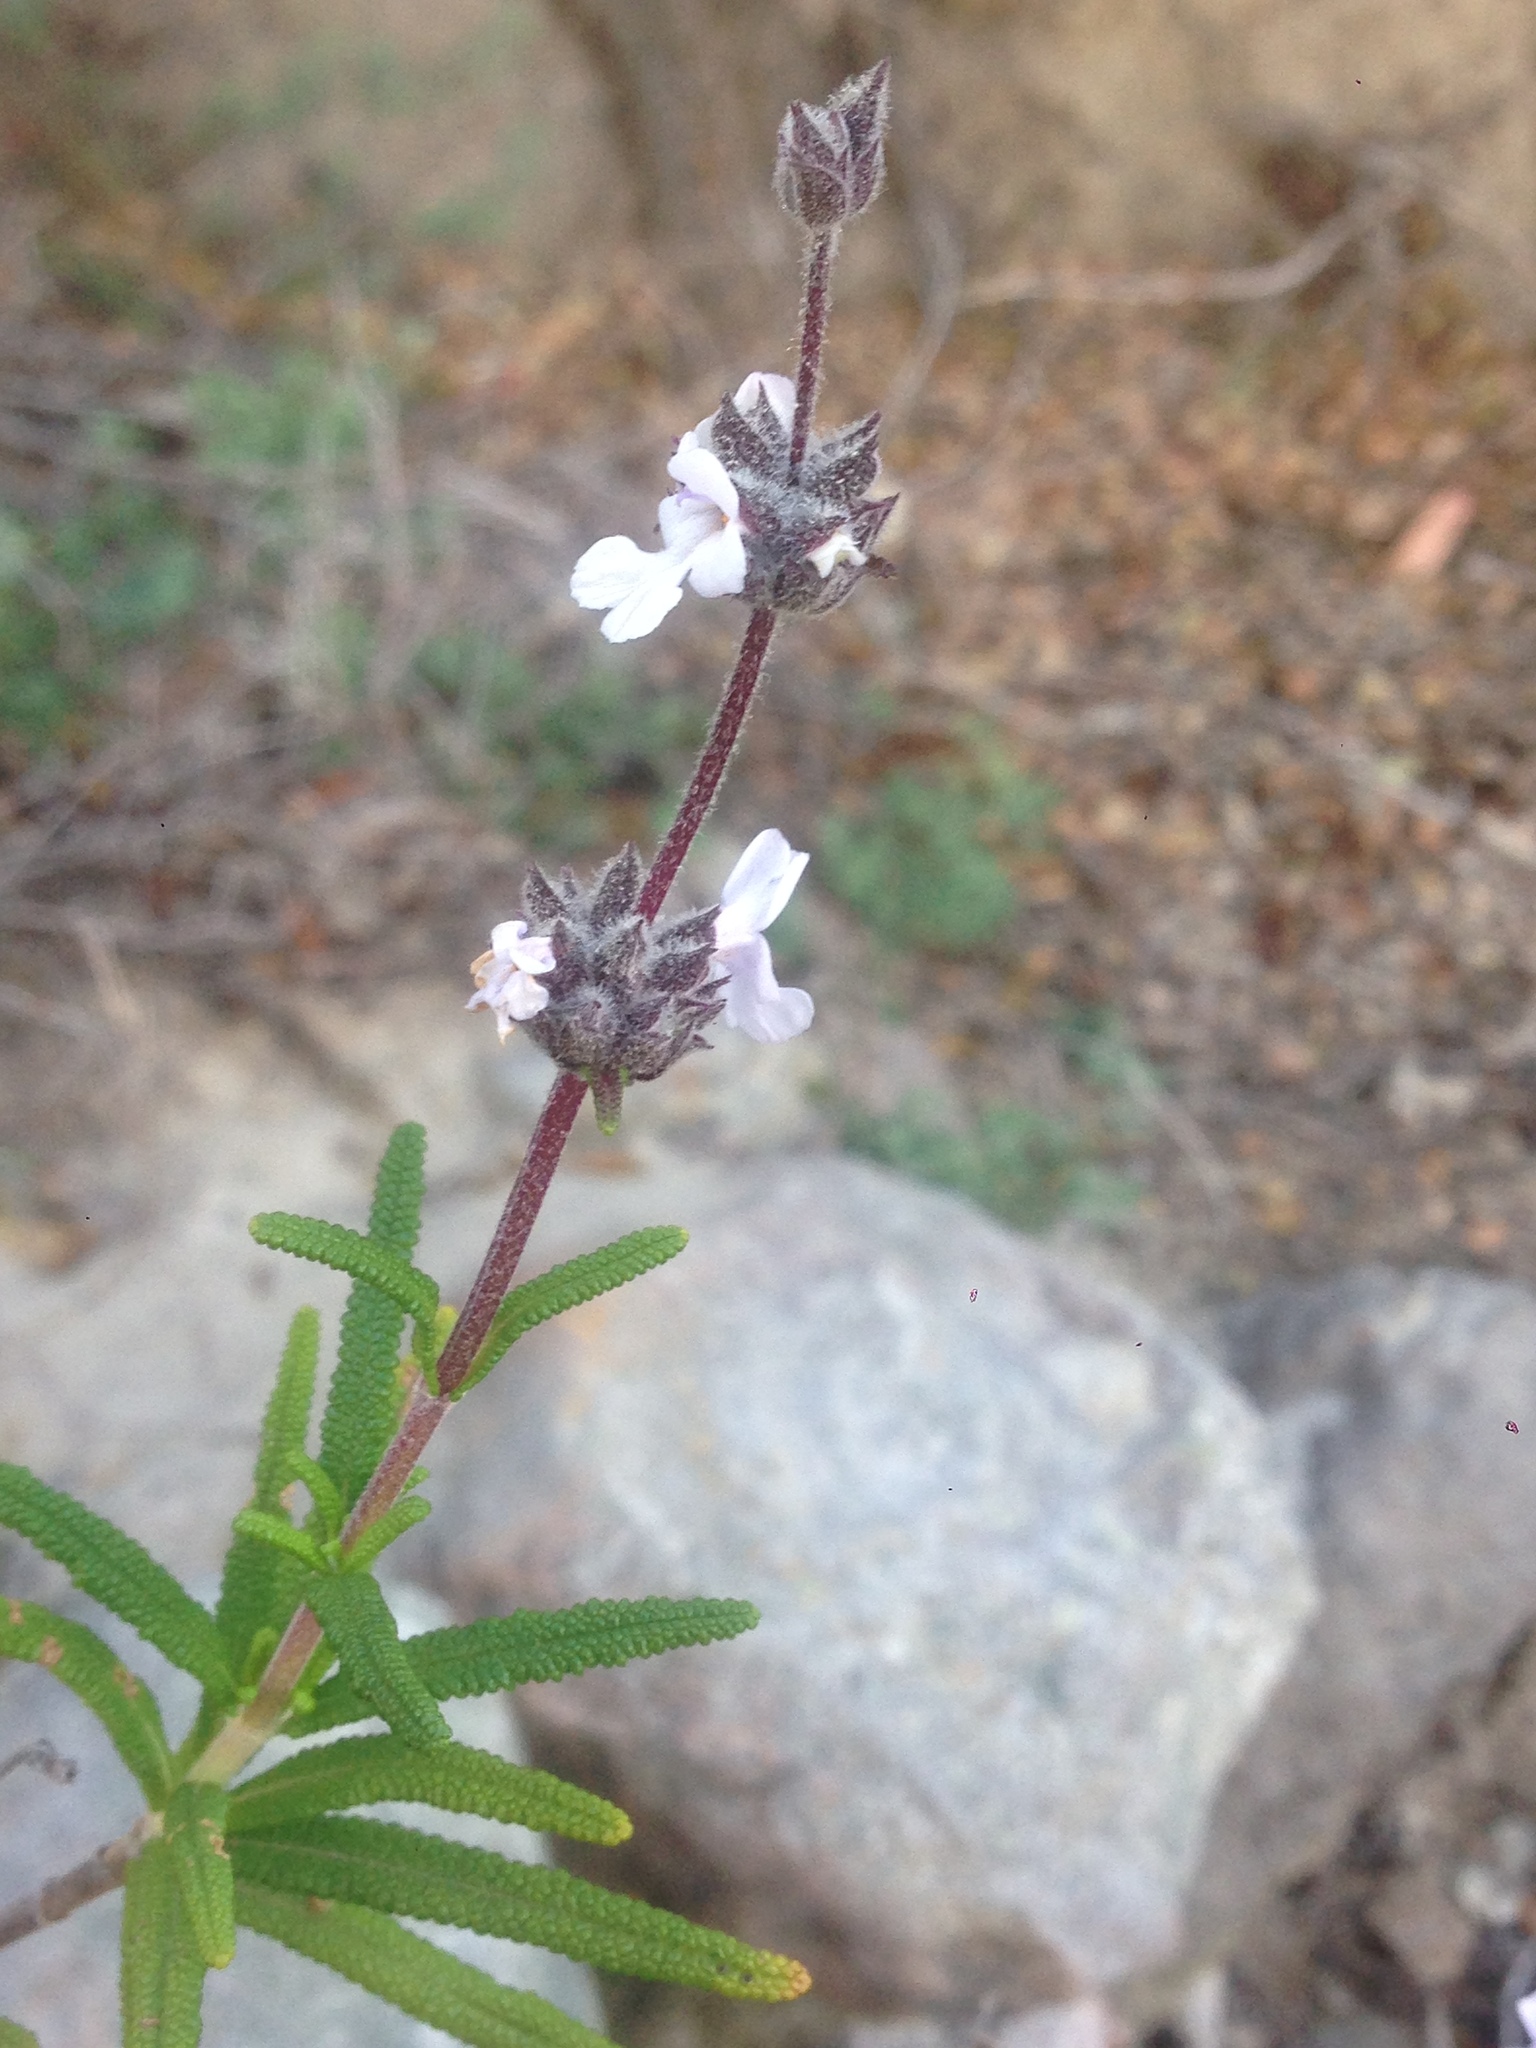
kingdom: Plantae
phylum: Tracheophyta
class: Magnoliopsida
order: Lamiales
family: Lamiaceae
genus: Salvia
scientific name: Salvia brandegeei
